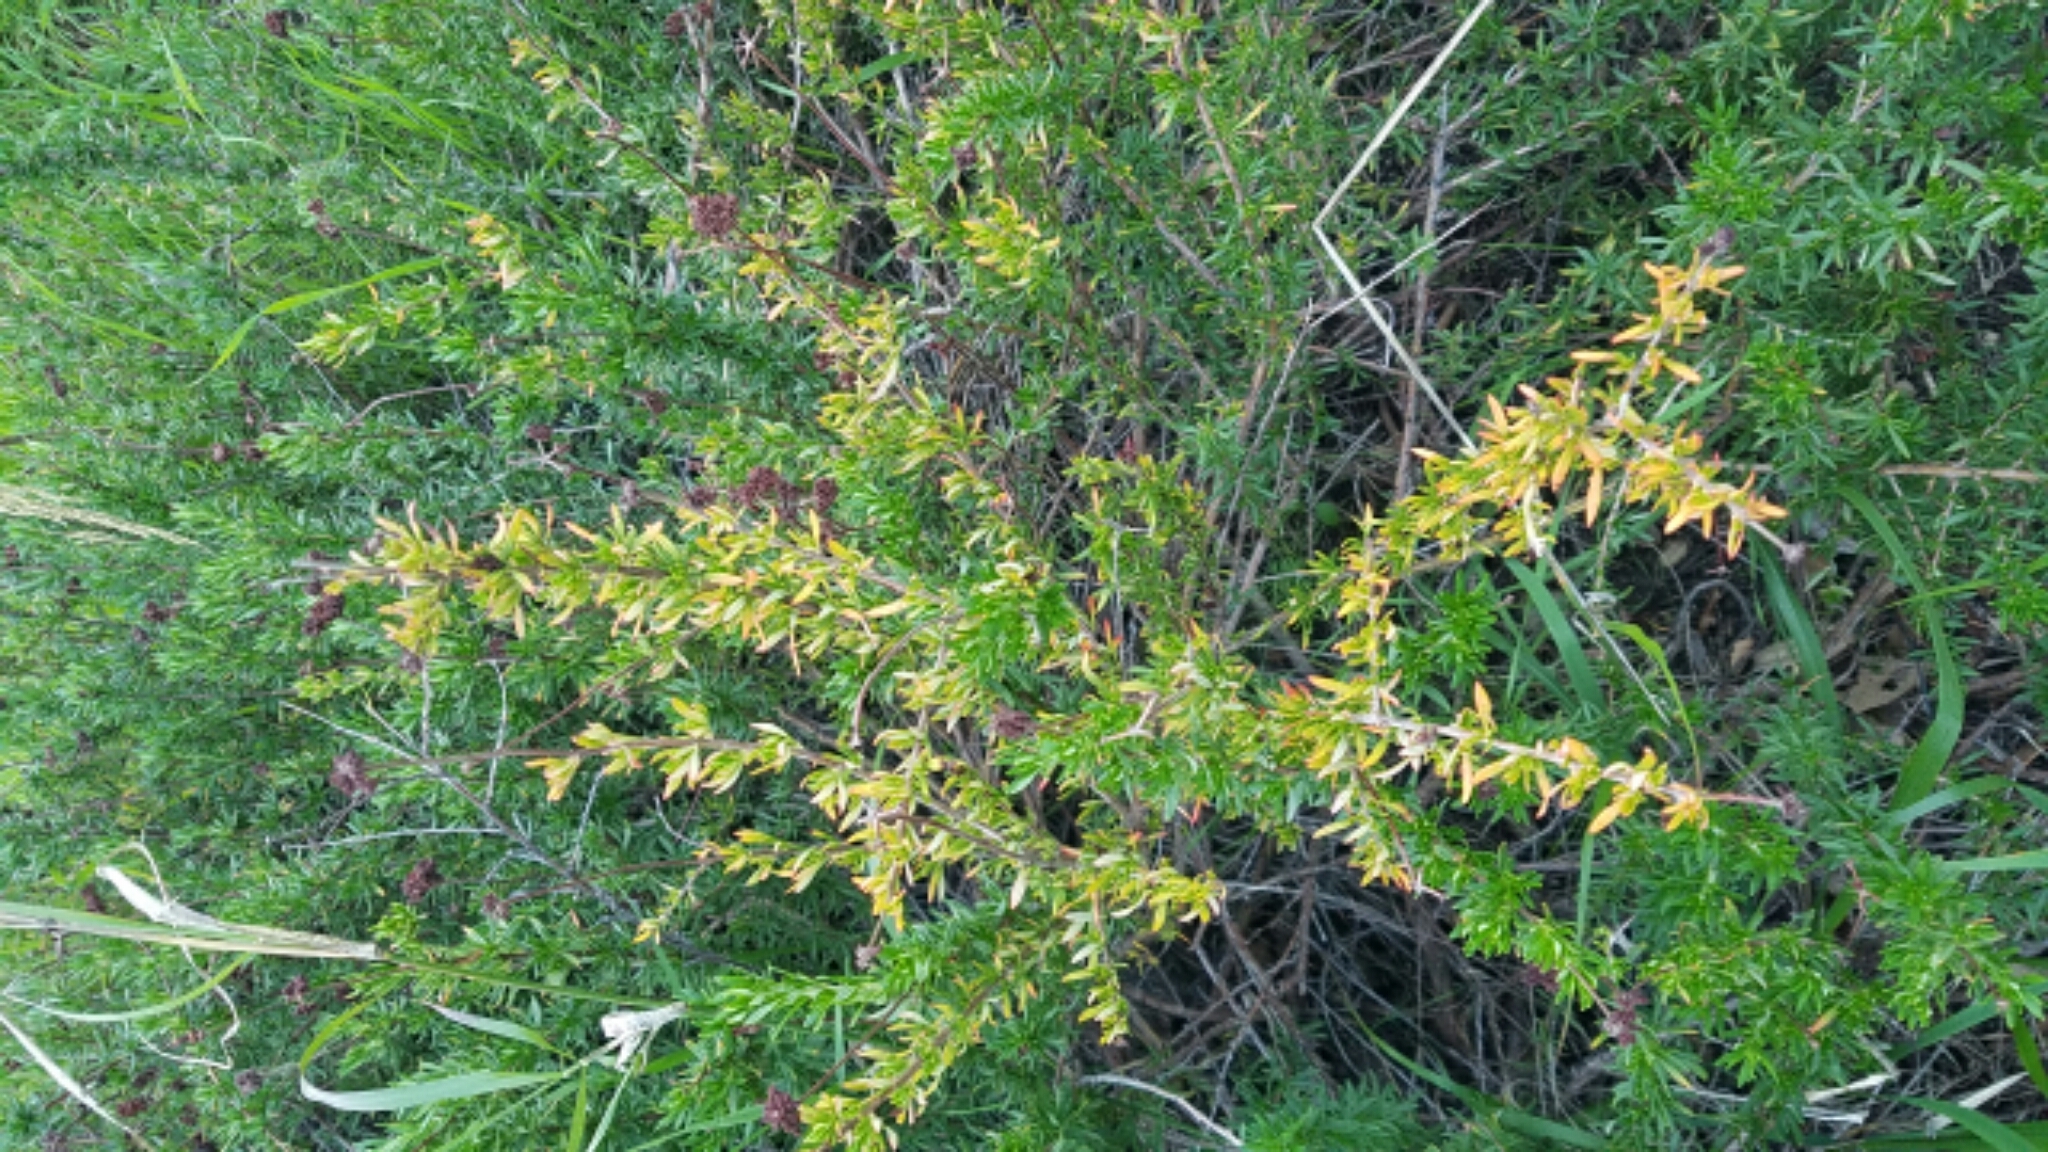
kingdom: Plantae
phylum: Tracheophyta
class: Magnoliopsida
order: Caryophyllales
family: Polygonaceae
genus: Eriogonum
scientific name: Eriogonum fasciculatum
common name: California wild buckwheat
